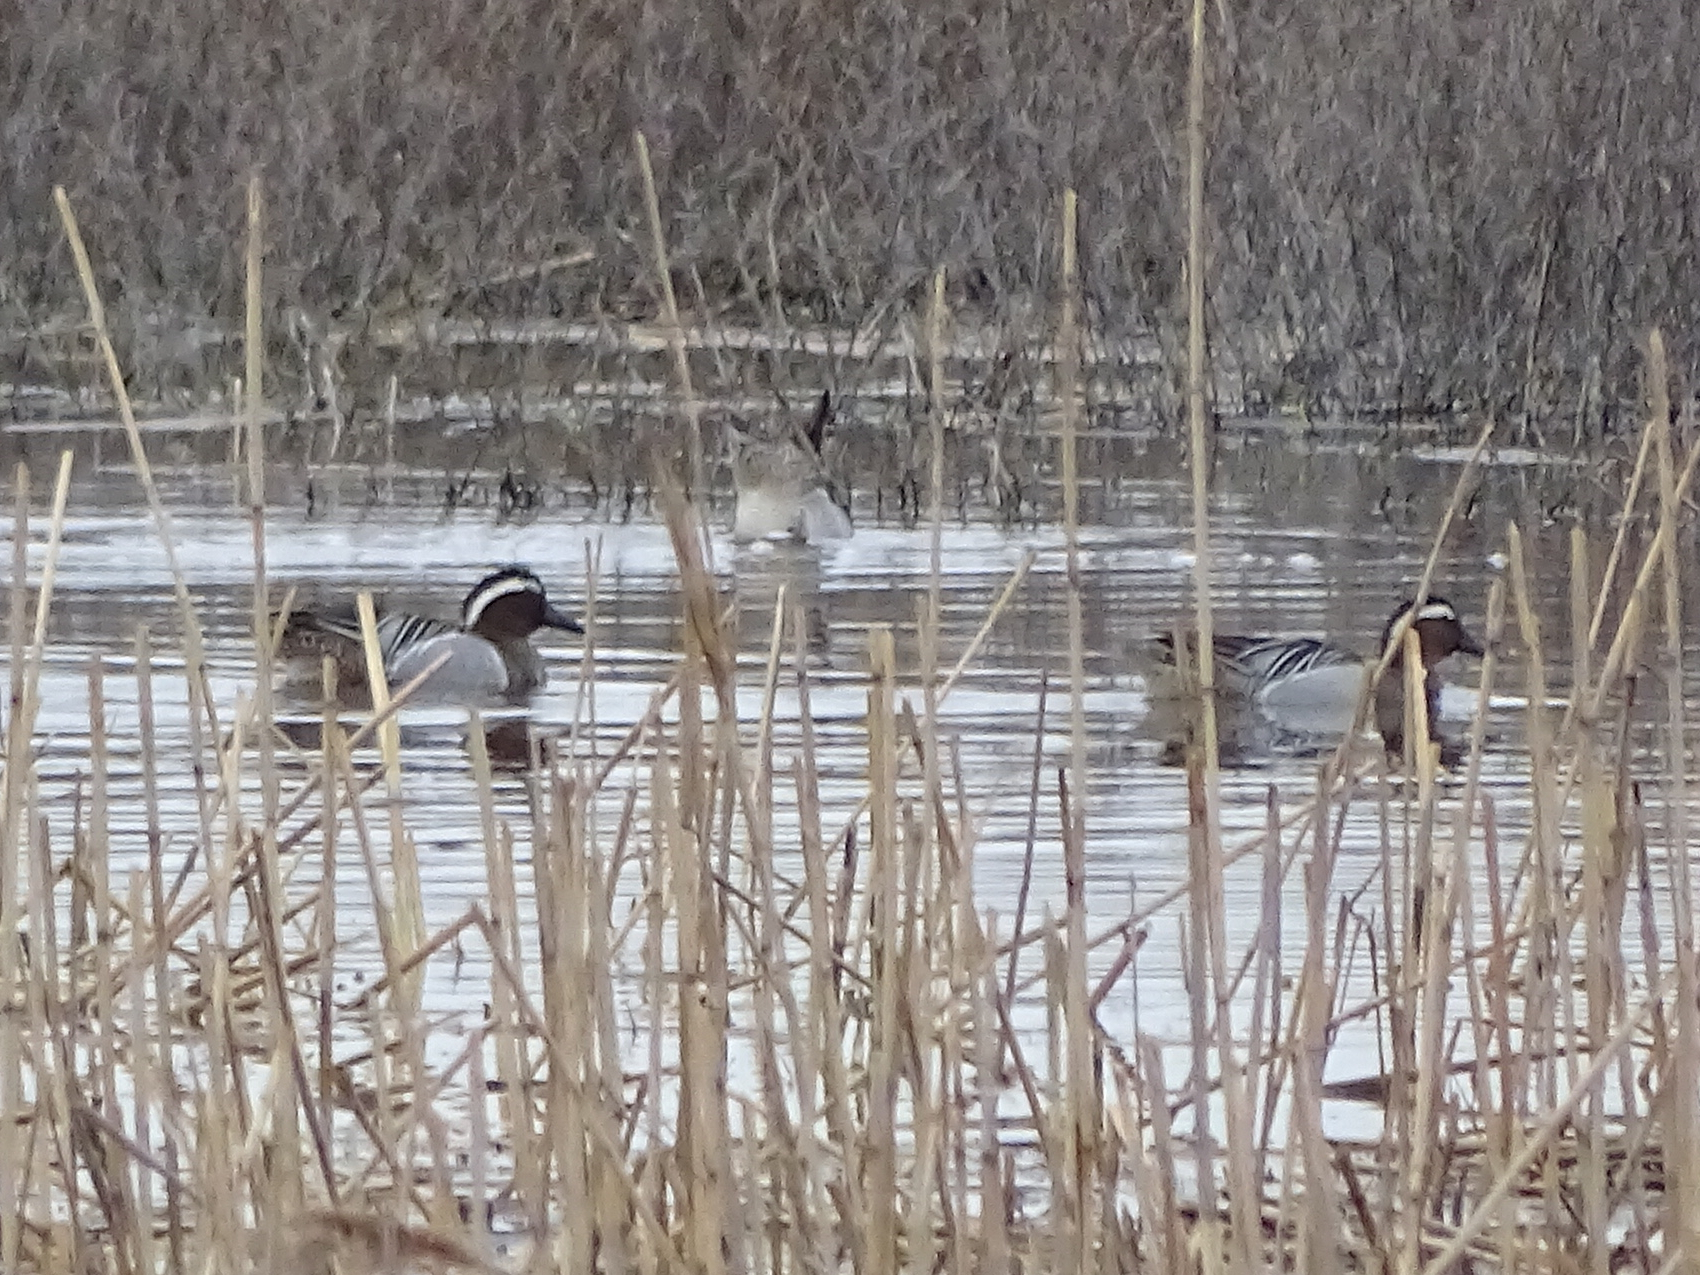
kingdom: Animalia
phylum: Chordata
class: Aves
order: Anseriformes
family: Anatidae
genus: Spatula
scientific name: Spatula querquedula
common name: Garganey
